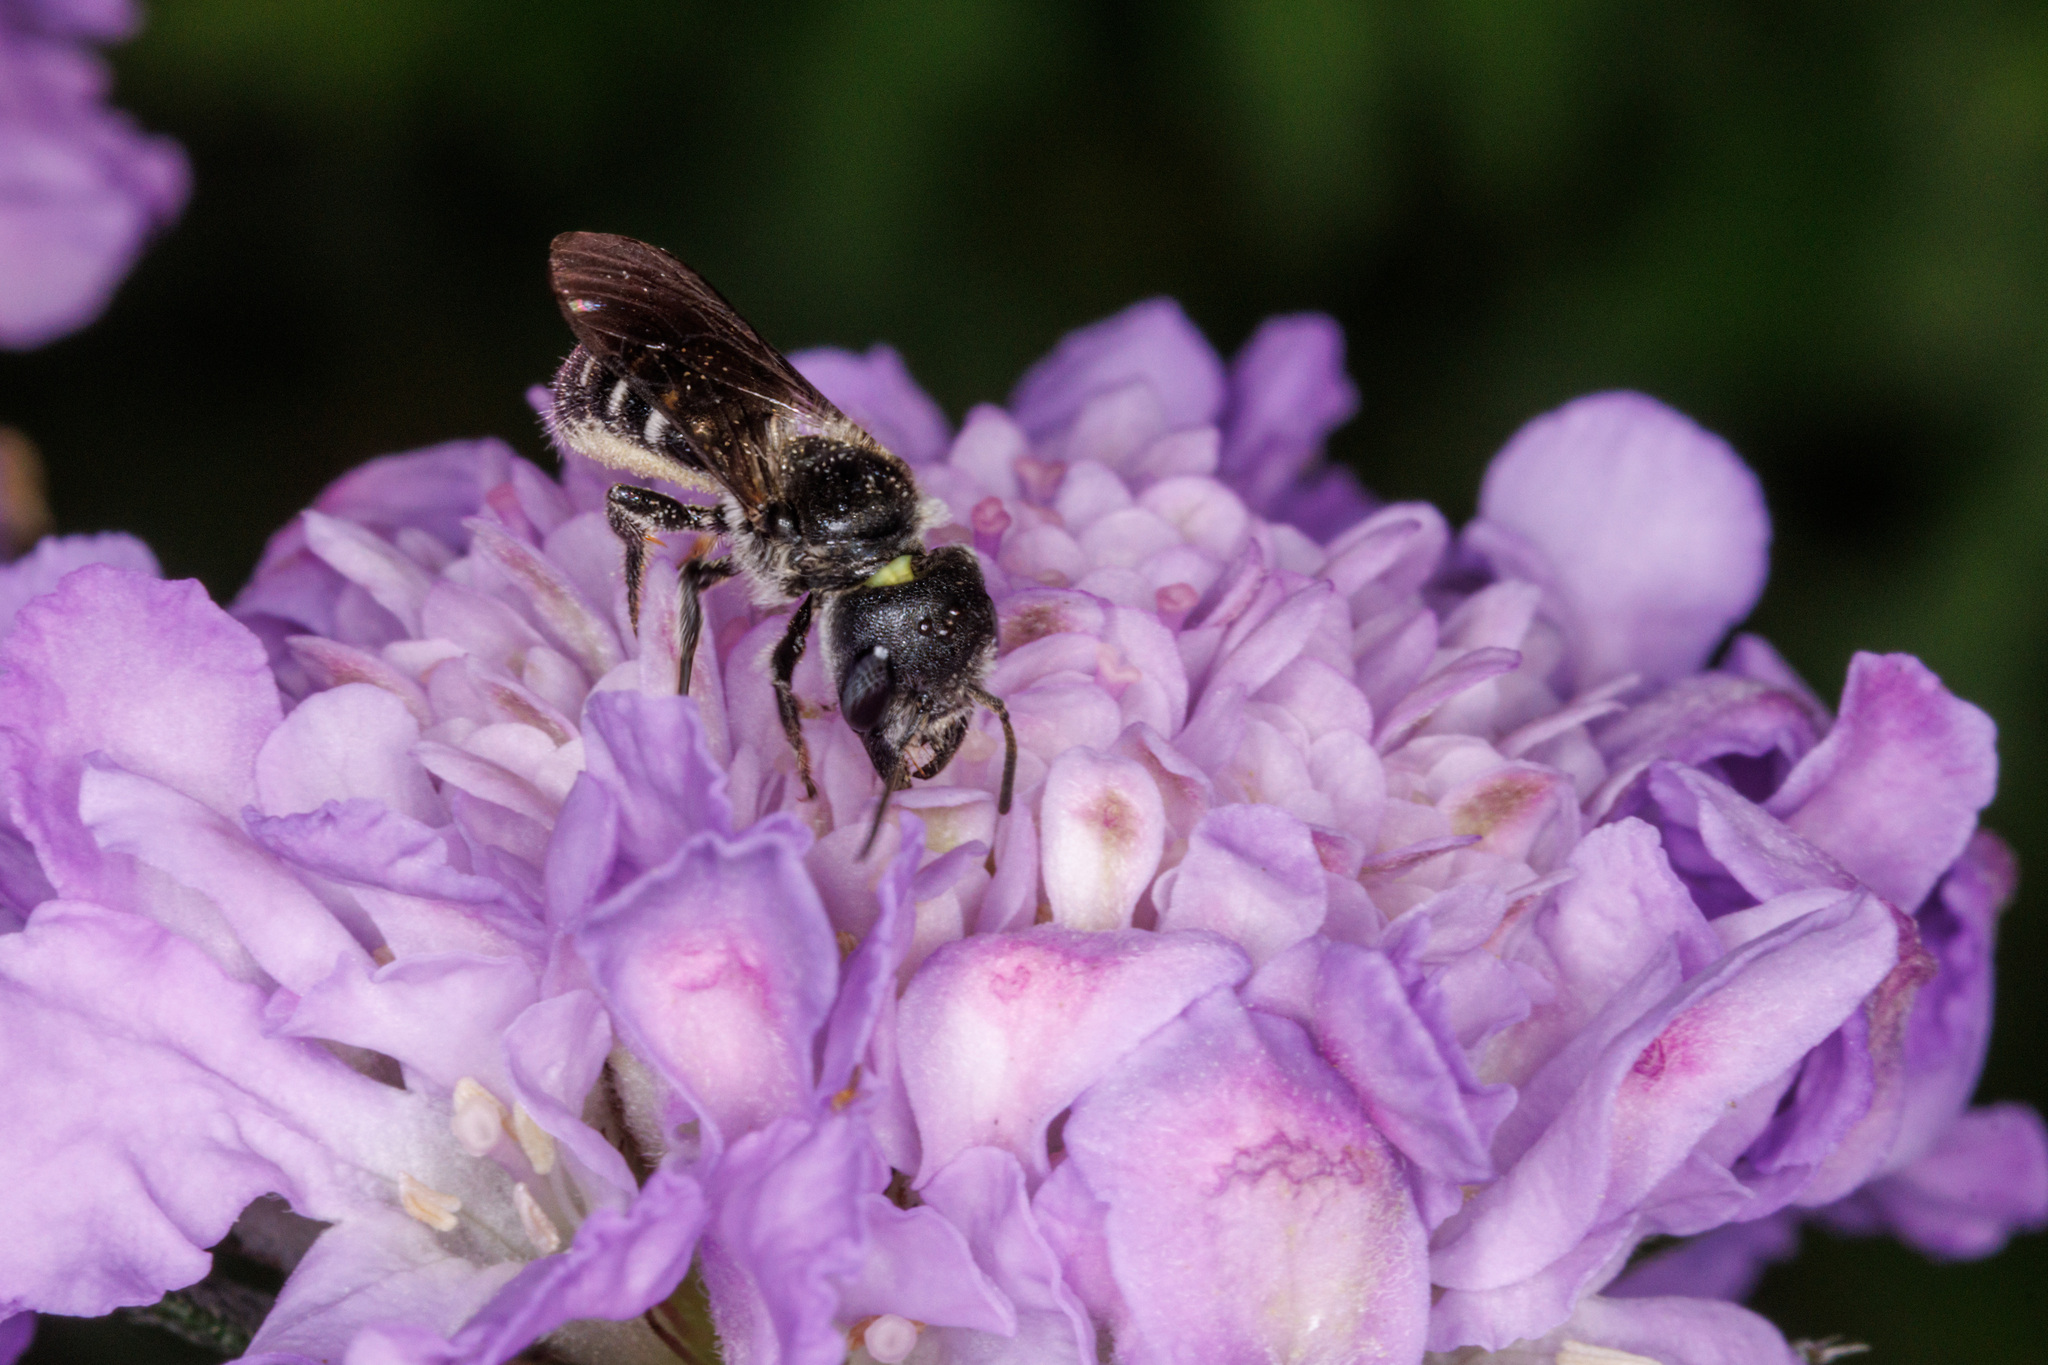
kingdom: Animalia
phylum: Arthropoda
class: Insecta
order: Hymenoptera
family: Megachilidae
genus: Protosmia
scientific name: Protosmia rubifloris
